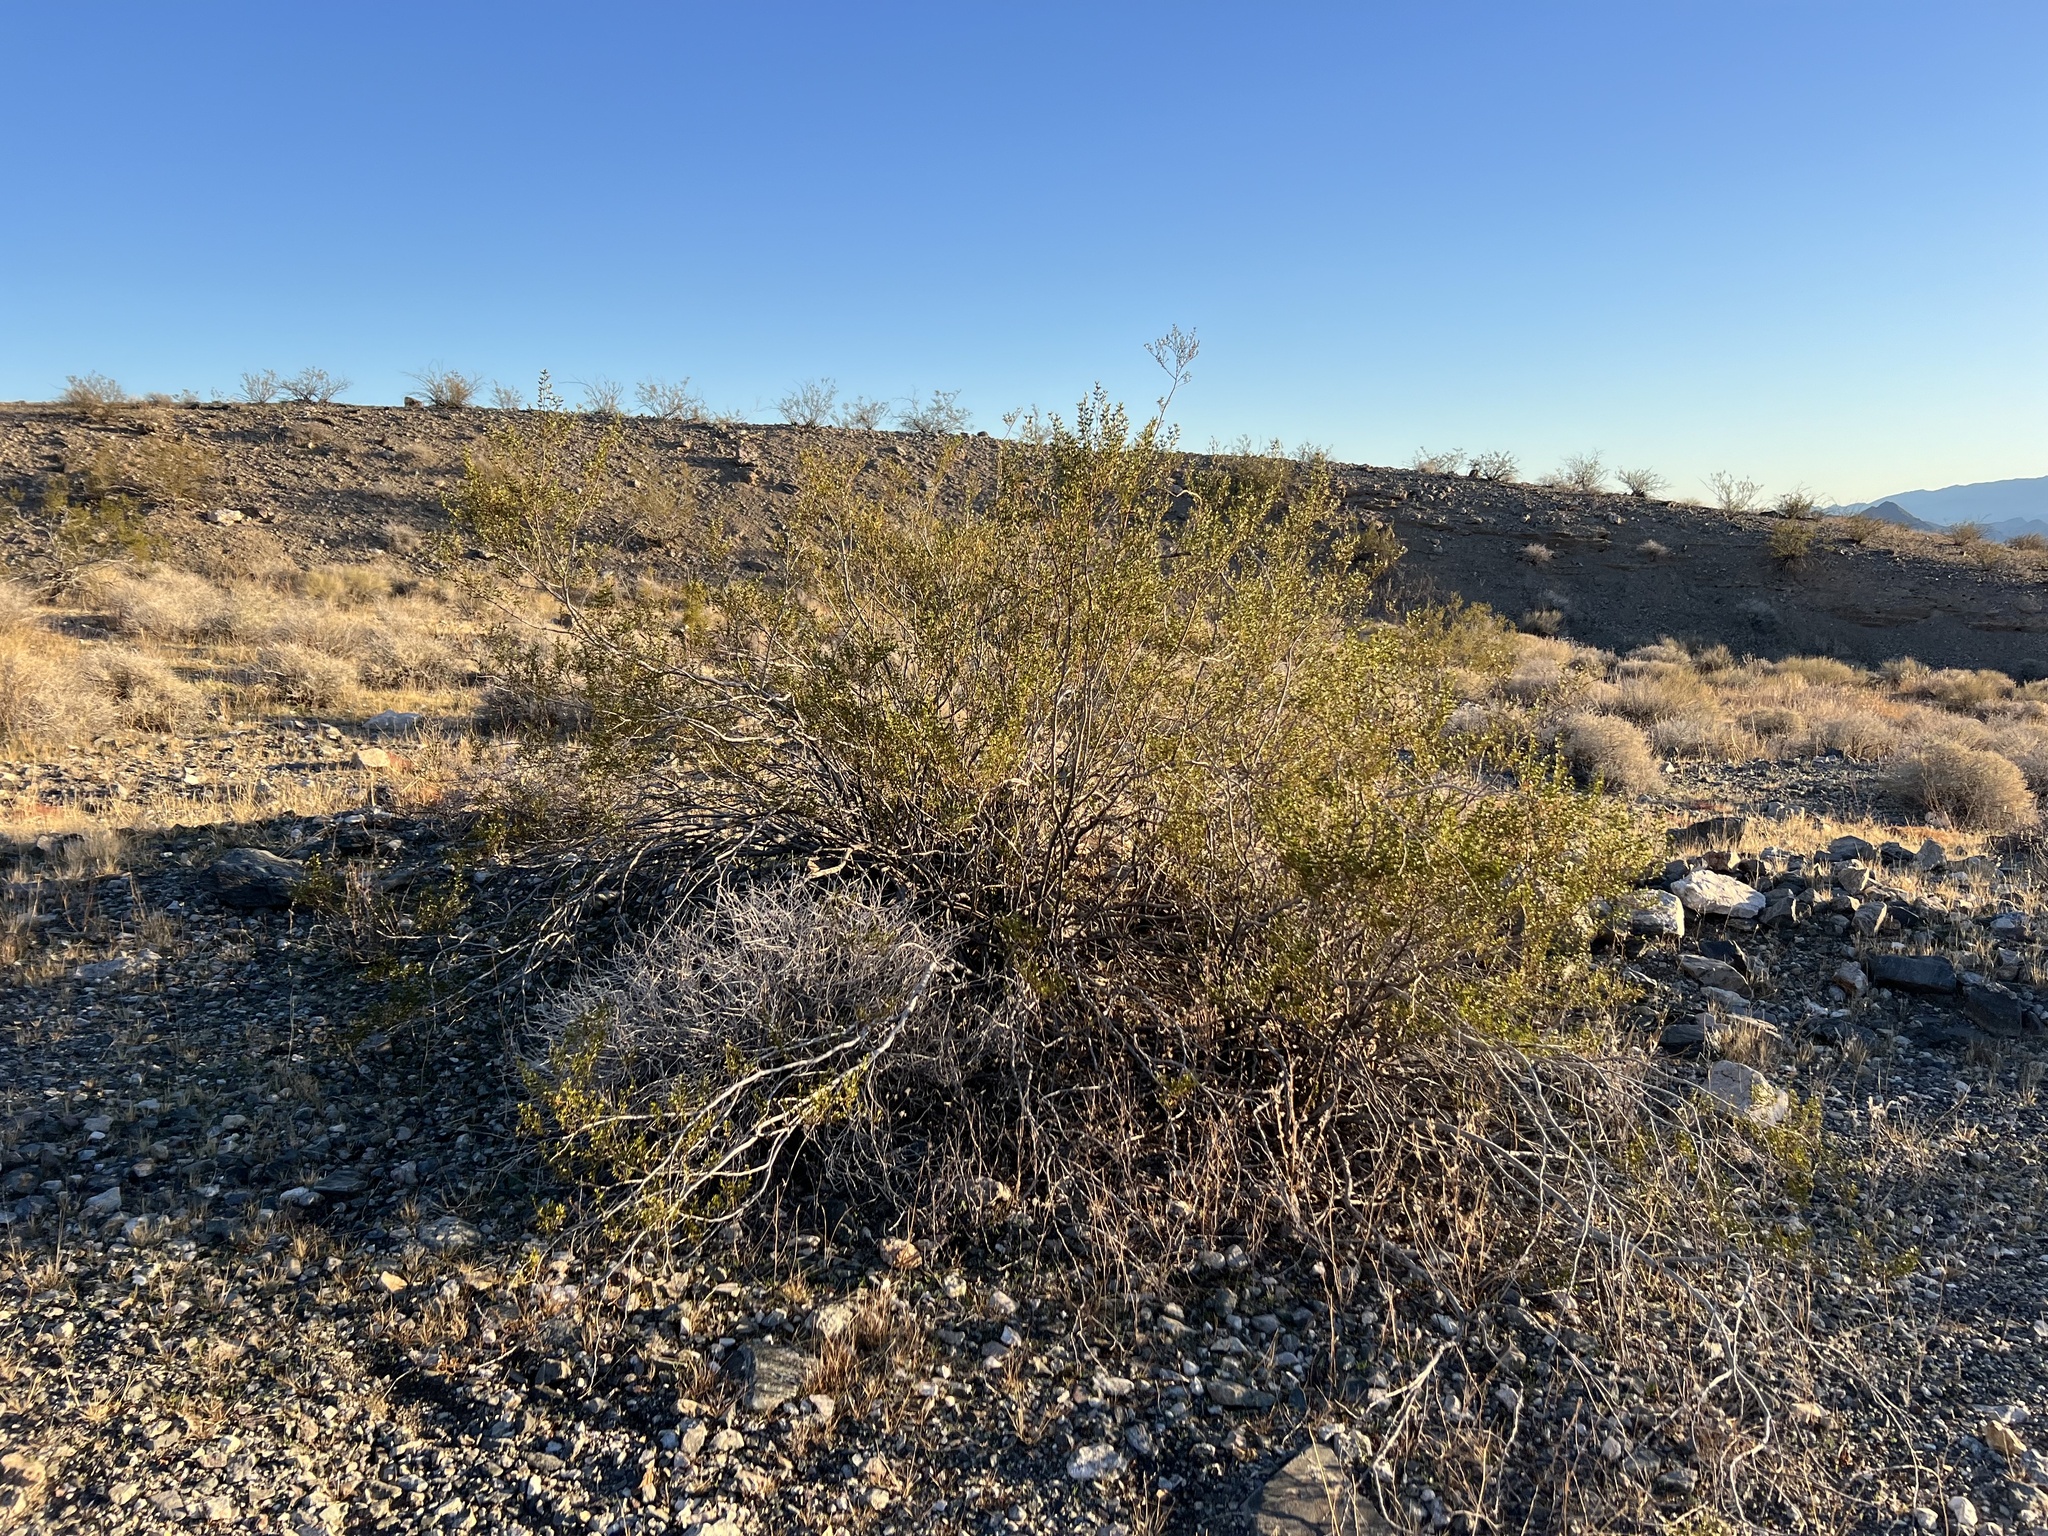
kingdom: Plantae
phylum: Tracheophyta
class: Magnoliopsida
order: Zygophyllales
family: Zygophyllaceae
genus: Larrea
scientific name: Larrea tridentata
